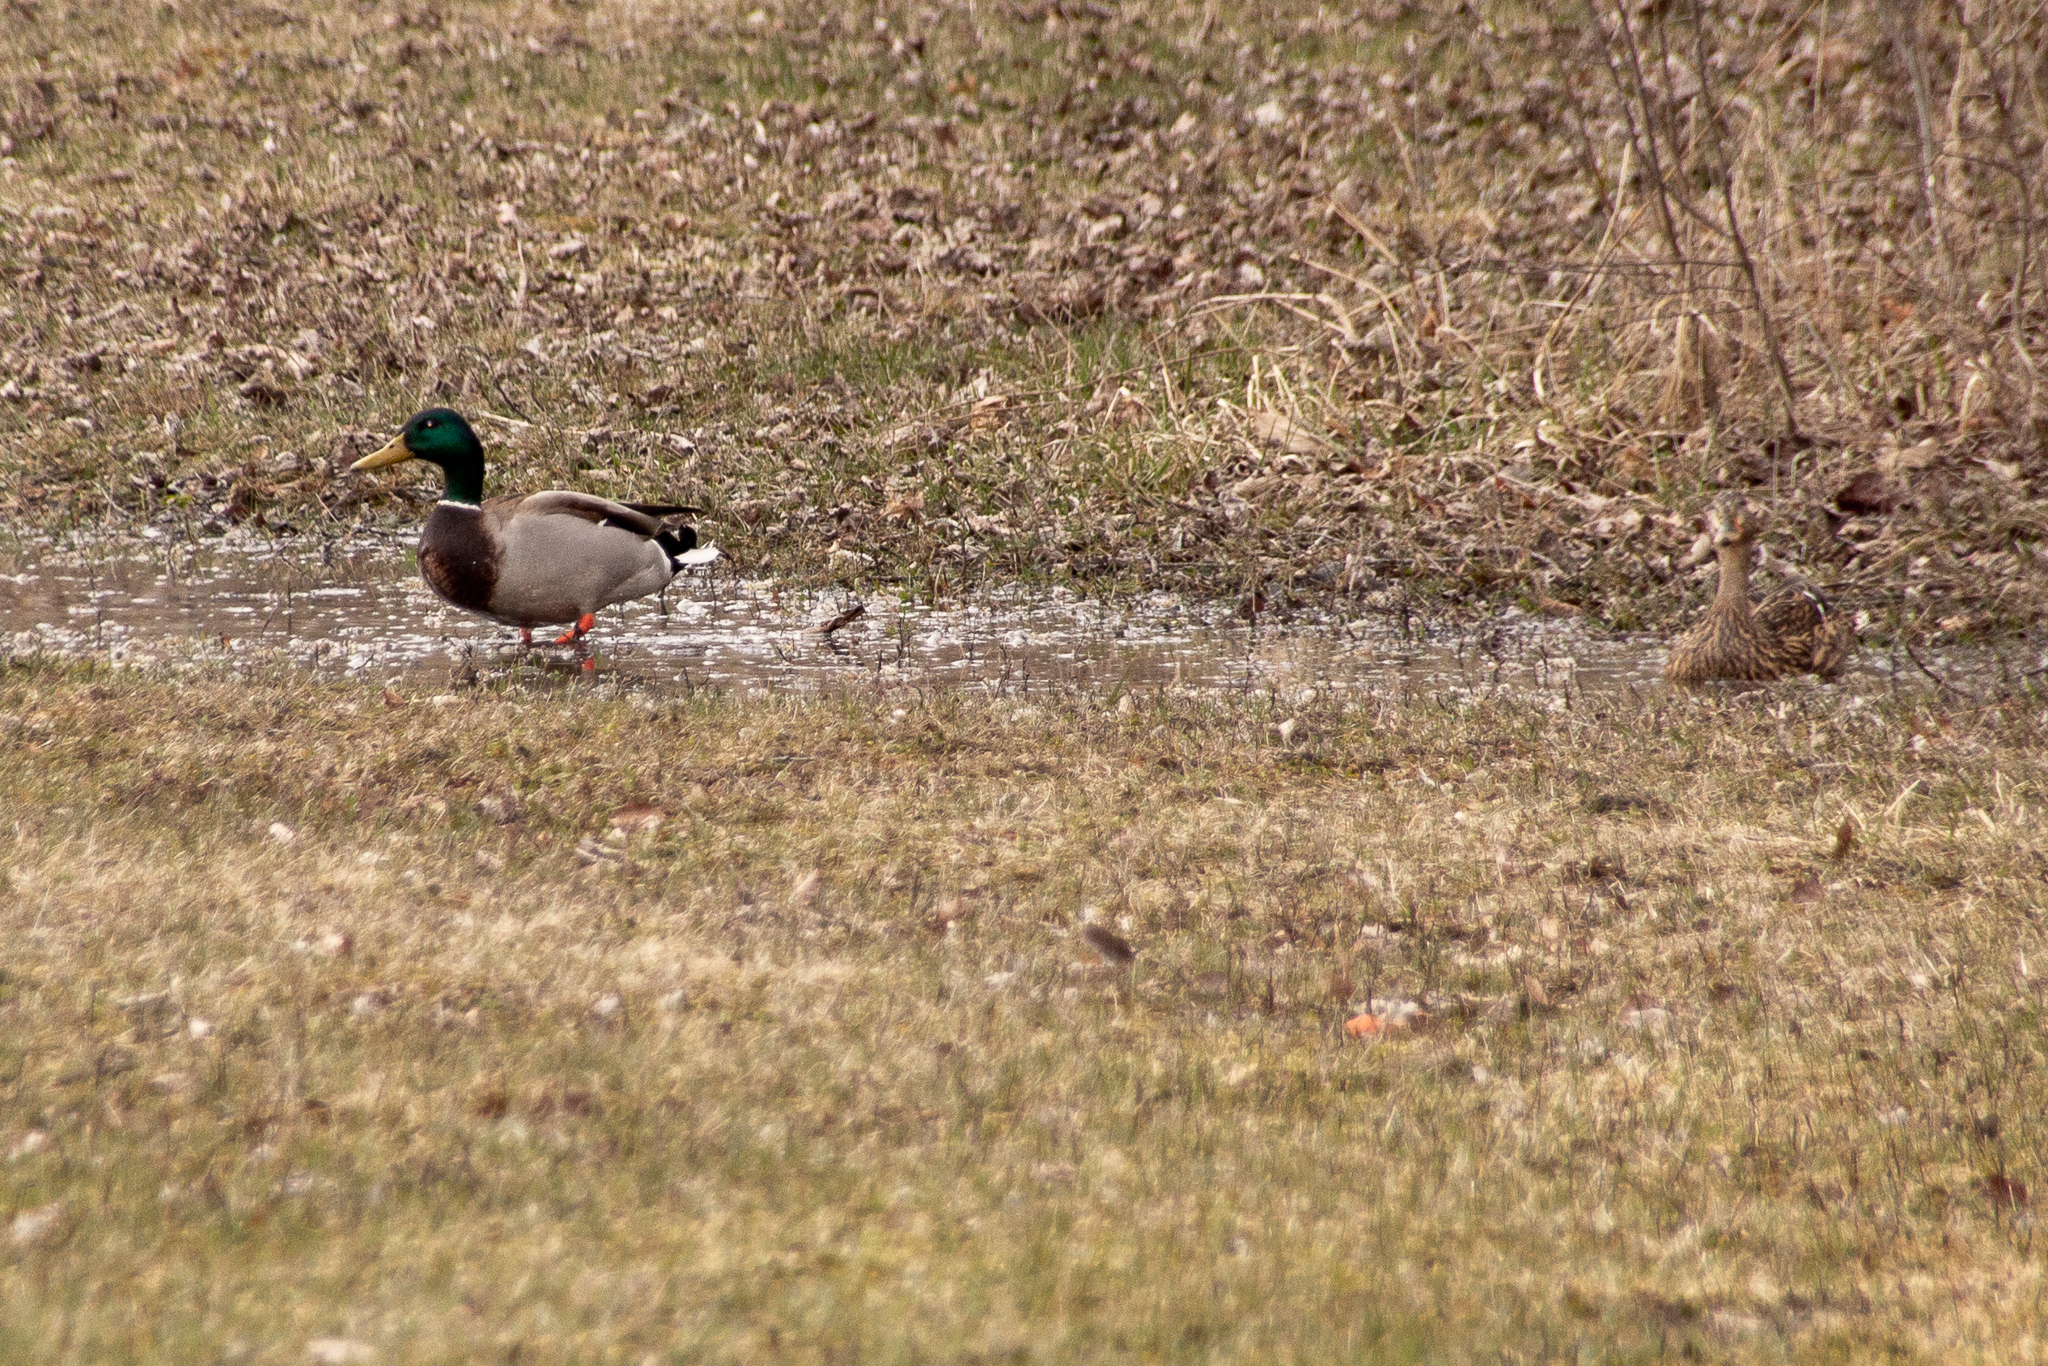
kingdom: Animalia
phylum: Chordata
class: Aves
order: Anseriformes
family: Anatidae
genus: Anas
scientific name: Anas platyrhynchos
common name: Mallard
